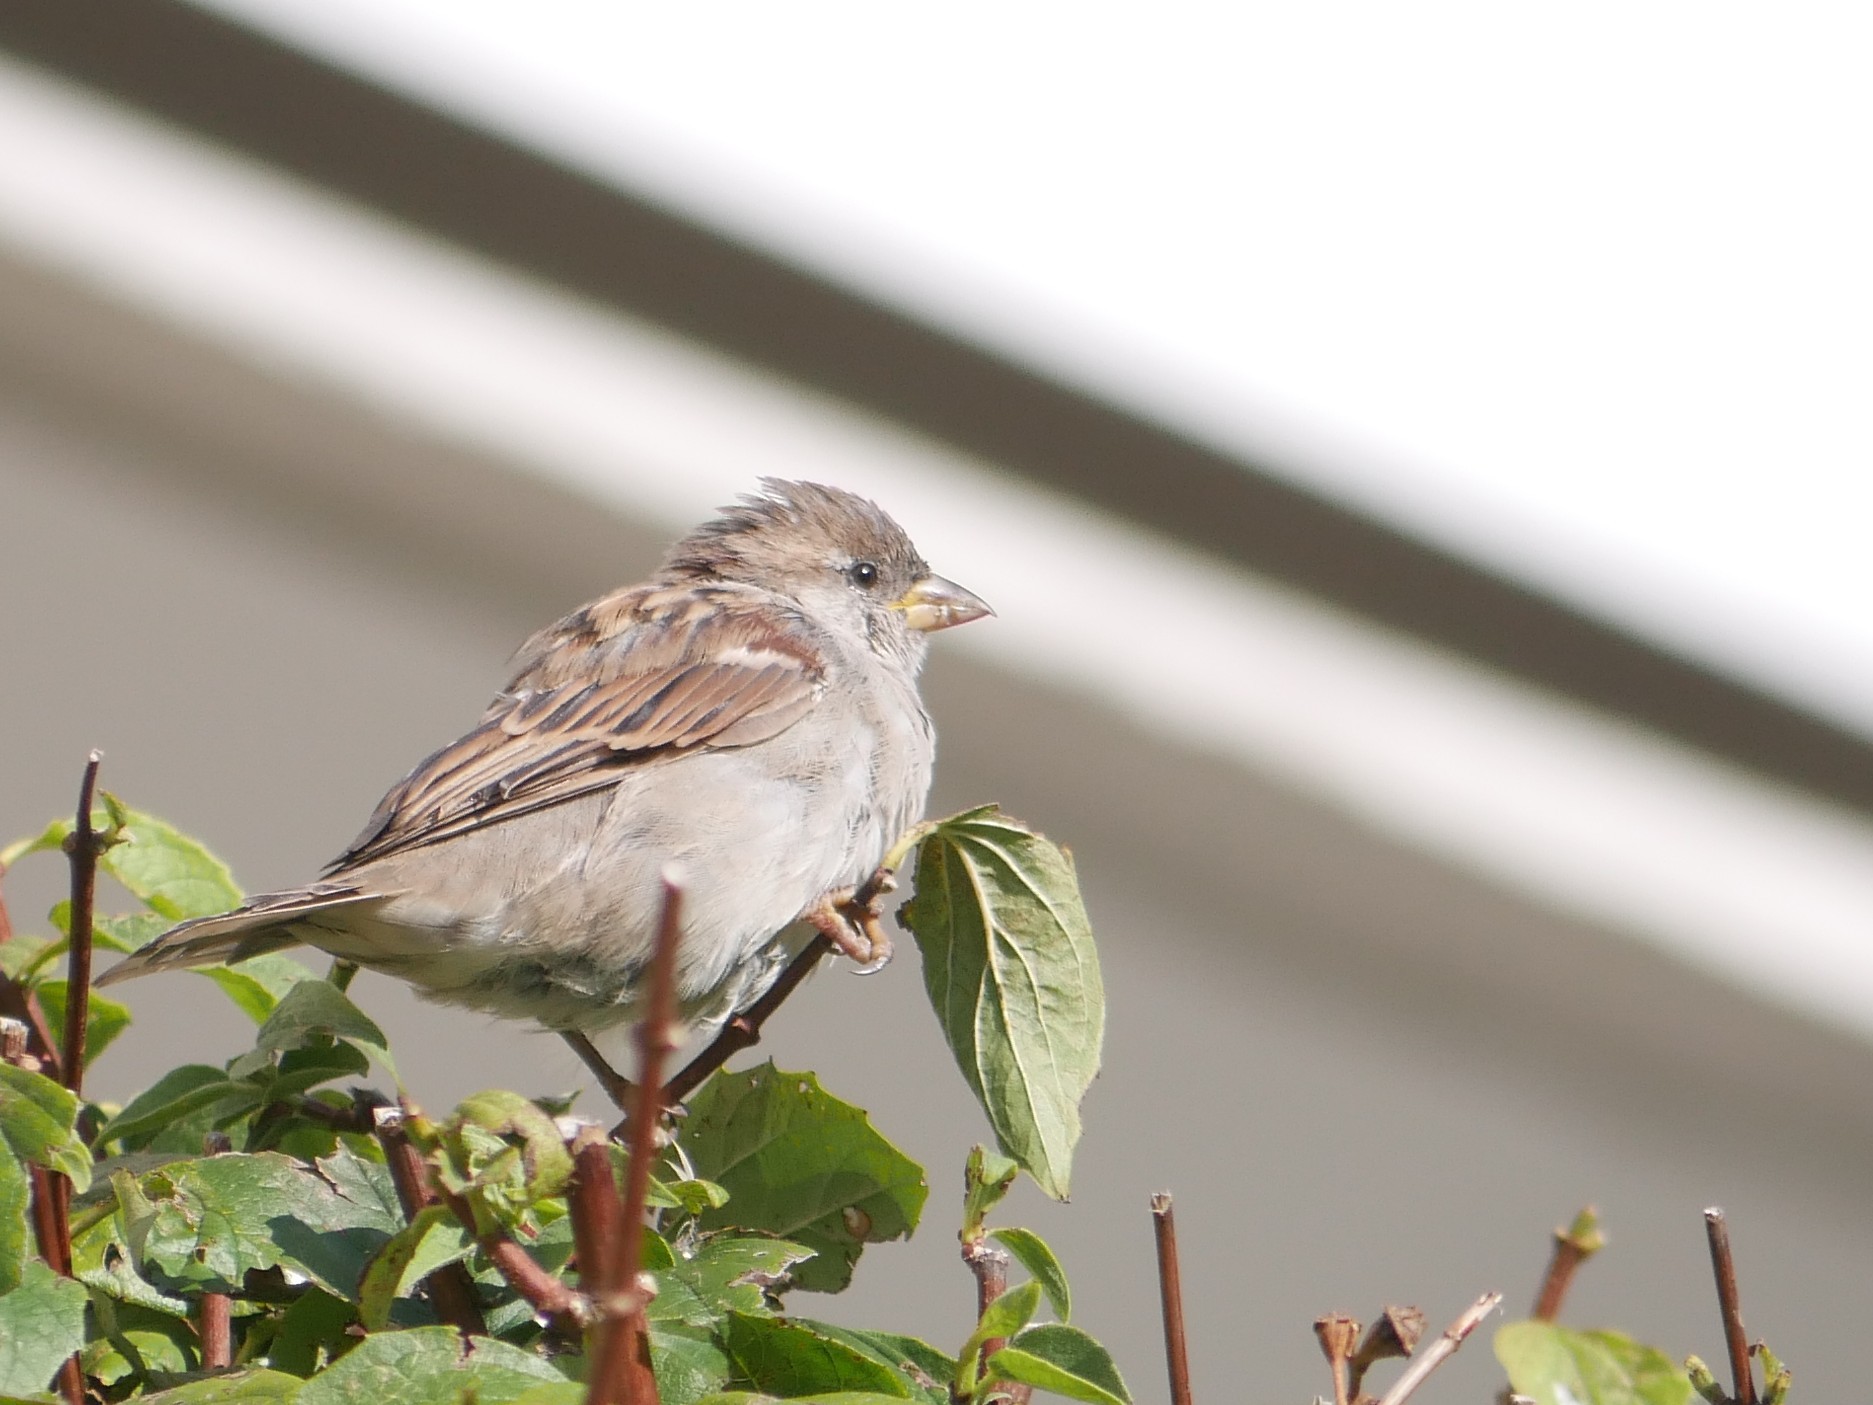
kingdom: Animalia
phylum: Chordata
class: Aves
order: Passeriformes
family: Passeridae
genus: Passer
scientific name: Passer domesticus
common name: House sparrow
